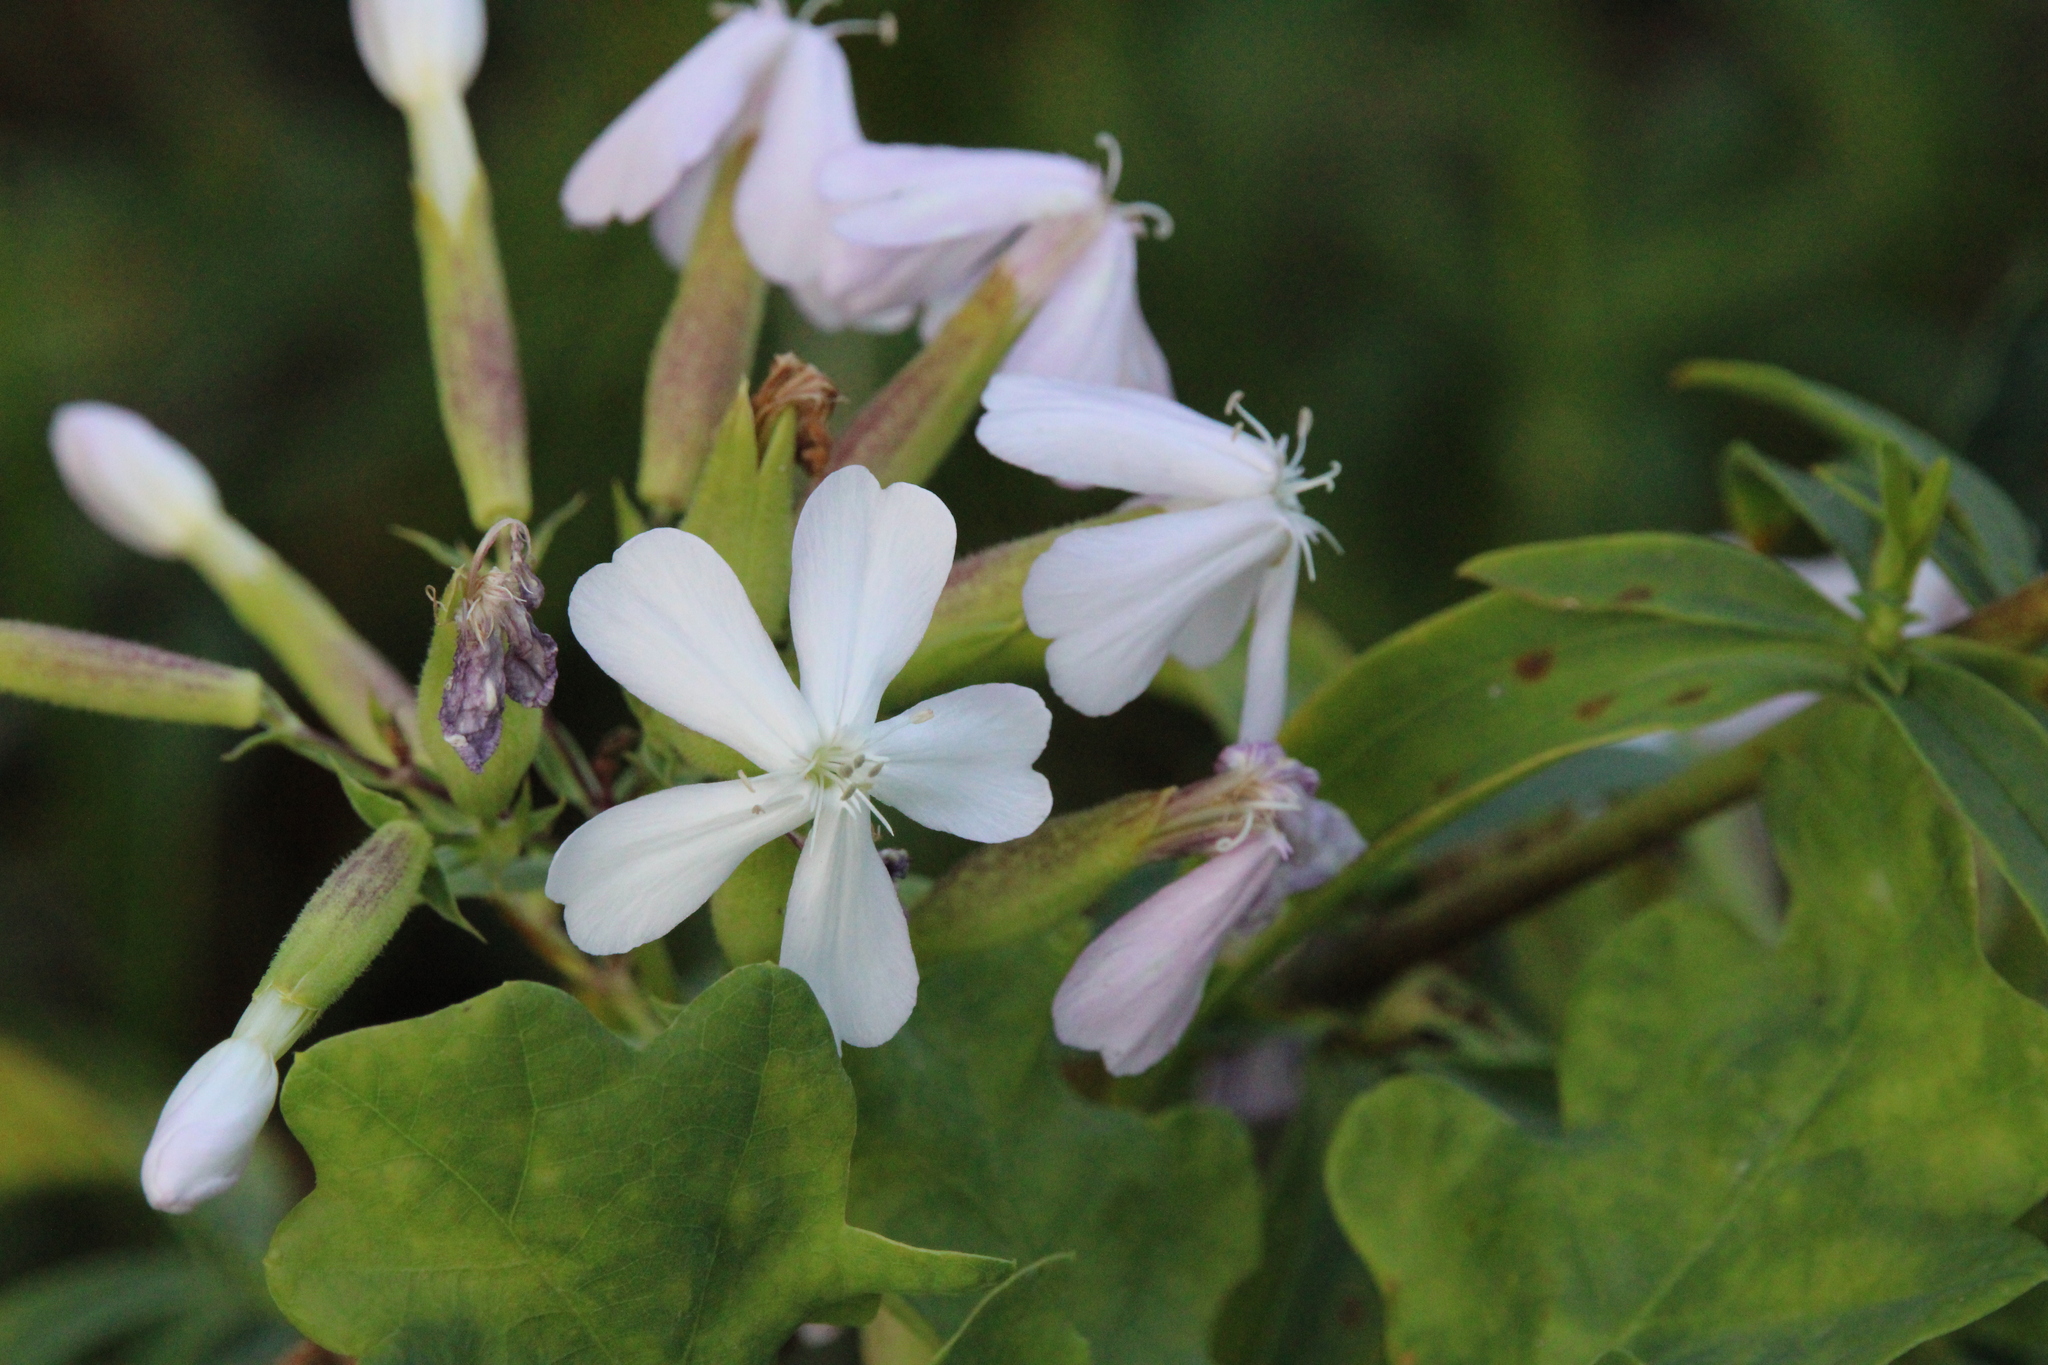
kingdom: Plantae
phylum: Tracheophyta
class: Magnoliopsida
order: Caryophyllales
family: Caryophyllaceae
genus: Saponaria
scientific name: Saponaria officinalis
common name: Soapwort
